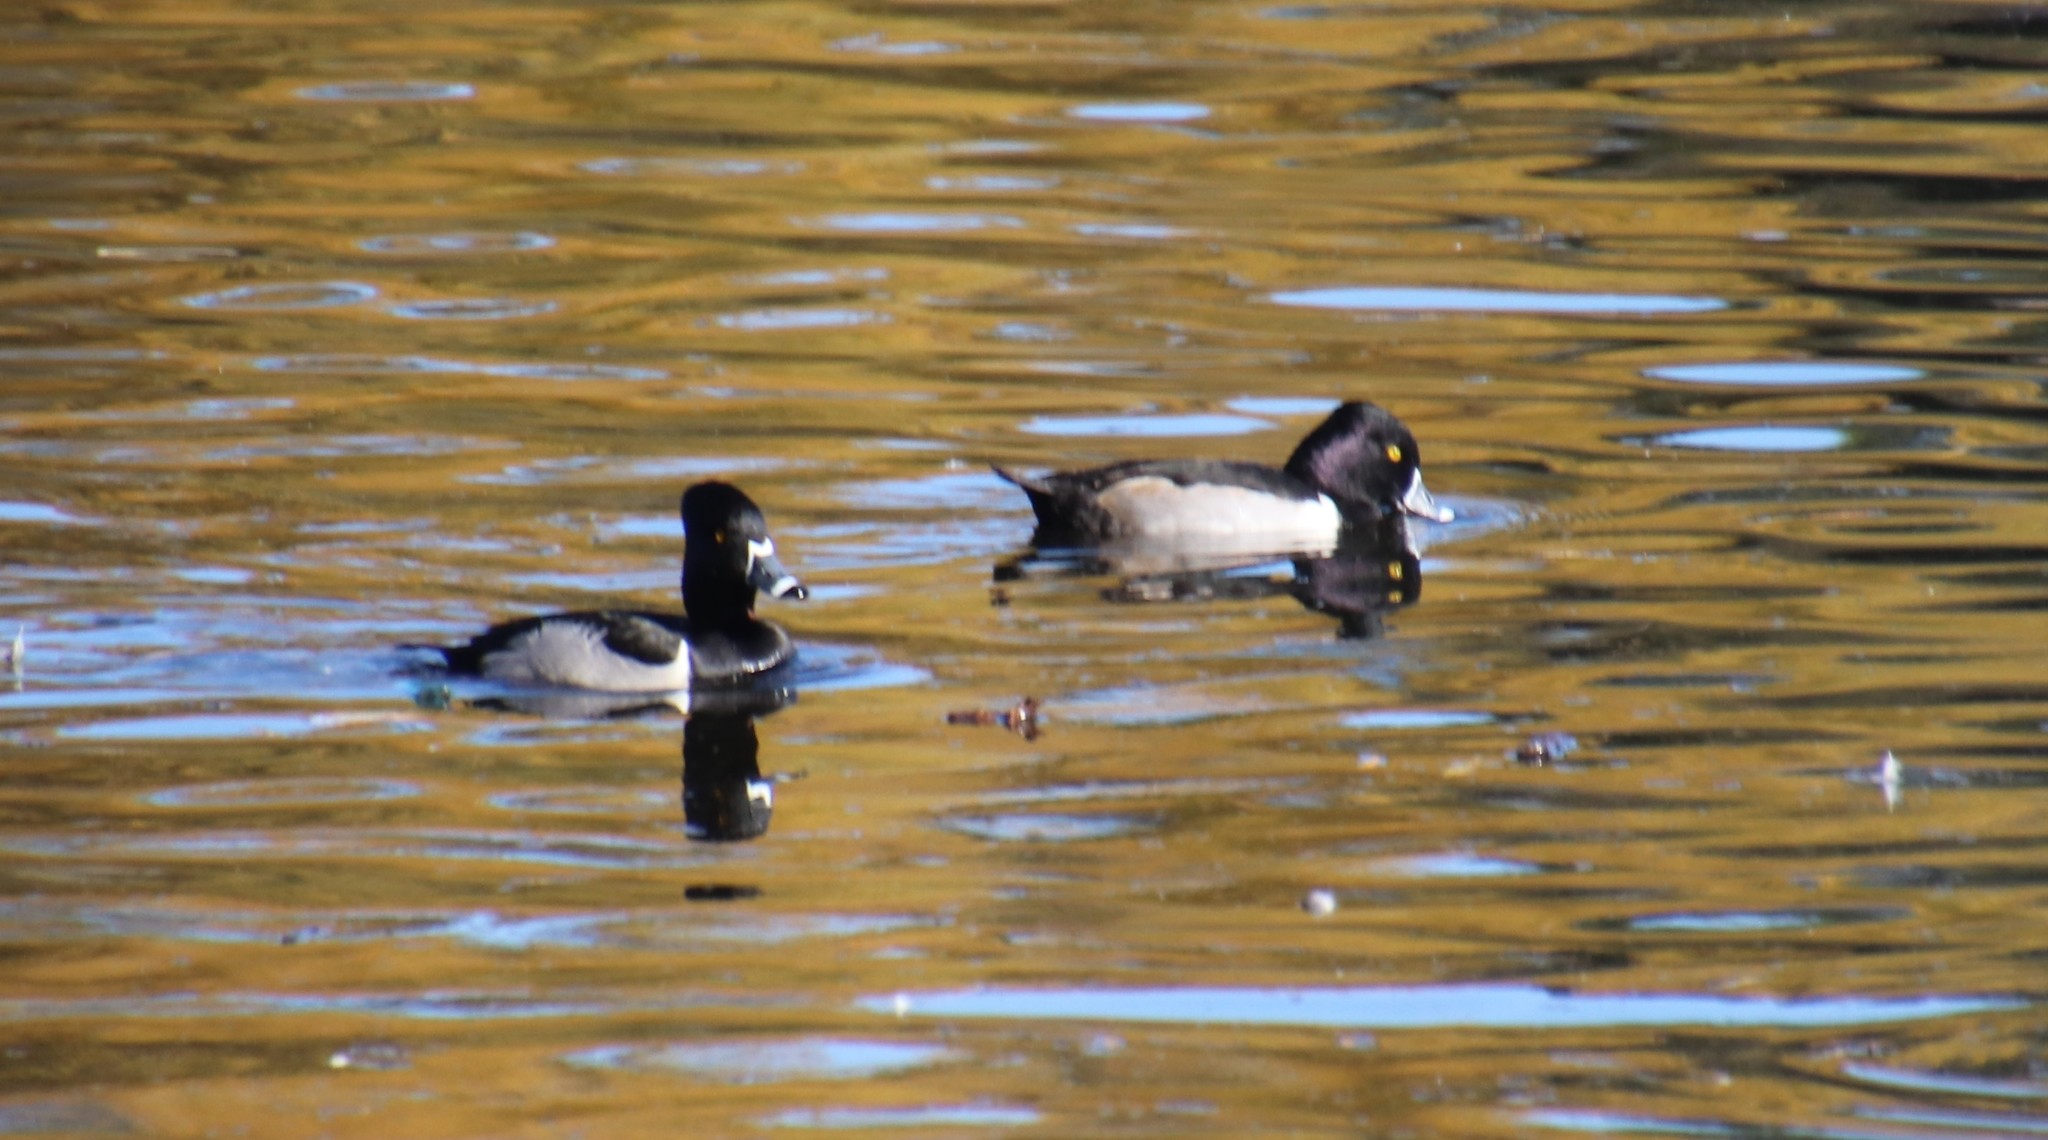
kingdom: Animalia
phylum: Chordata
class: Aves
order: Anseriformes
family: Anatidae
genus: Aythya
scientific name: Aythya collaris
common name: Ring-necked duck
